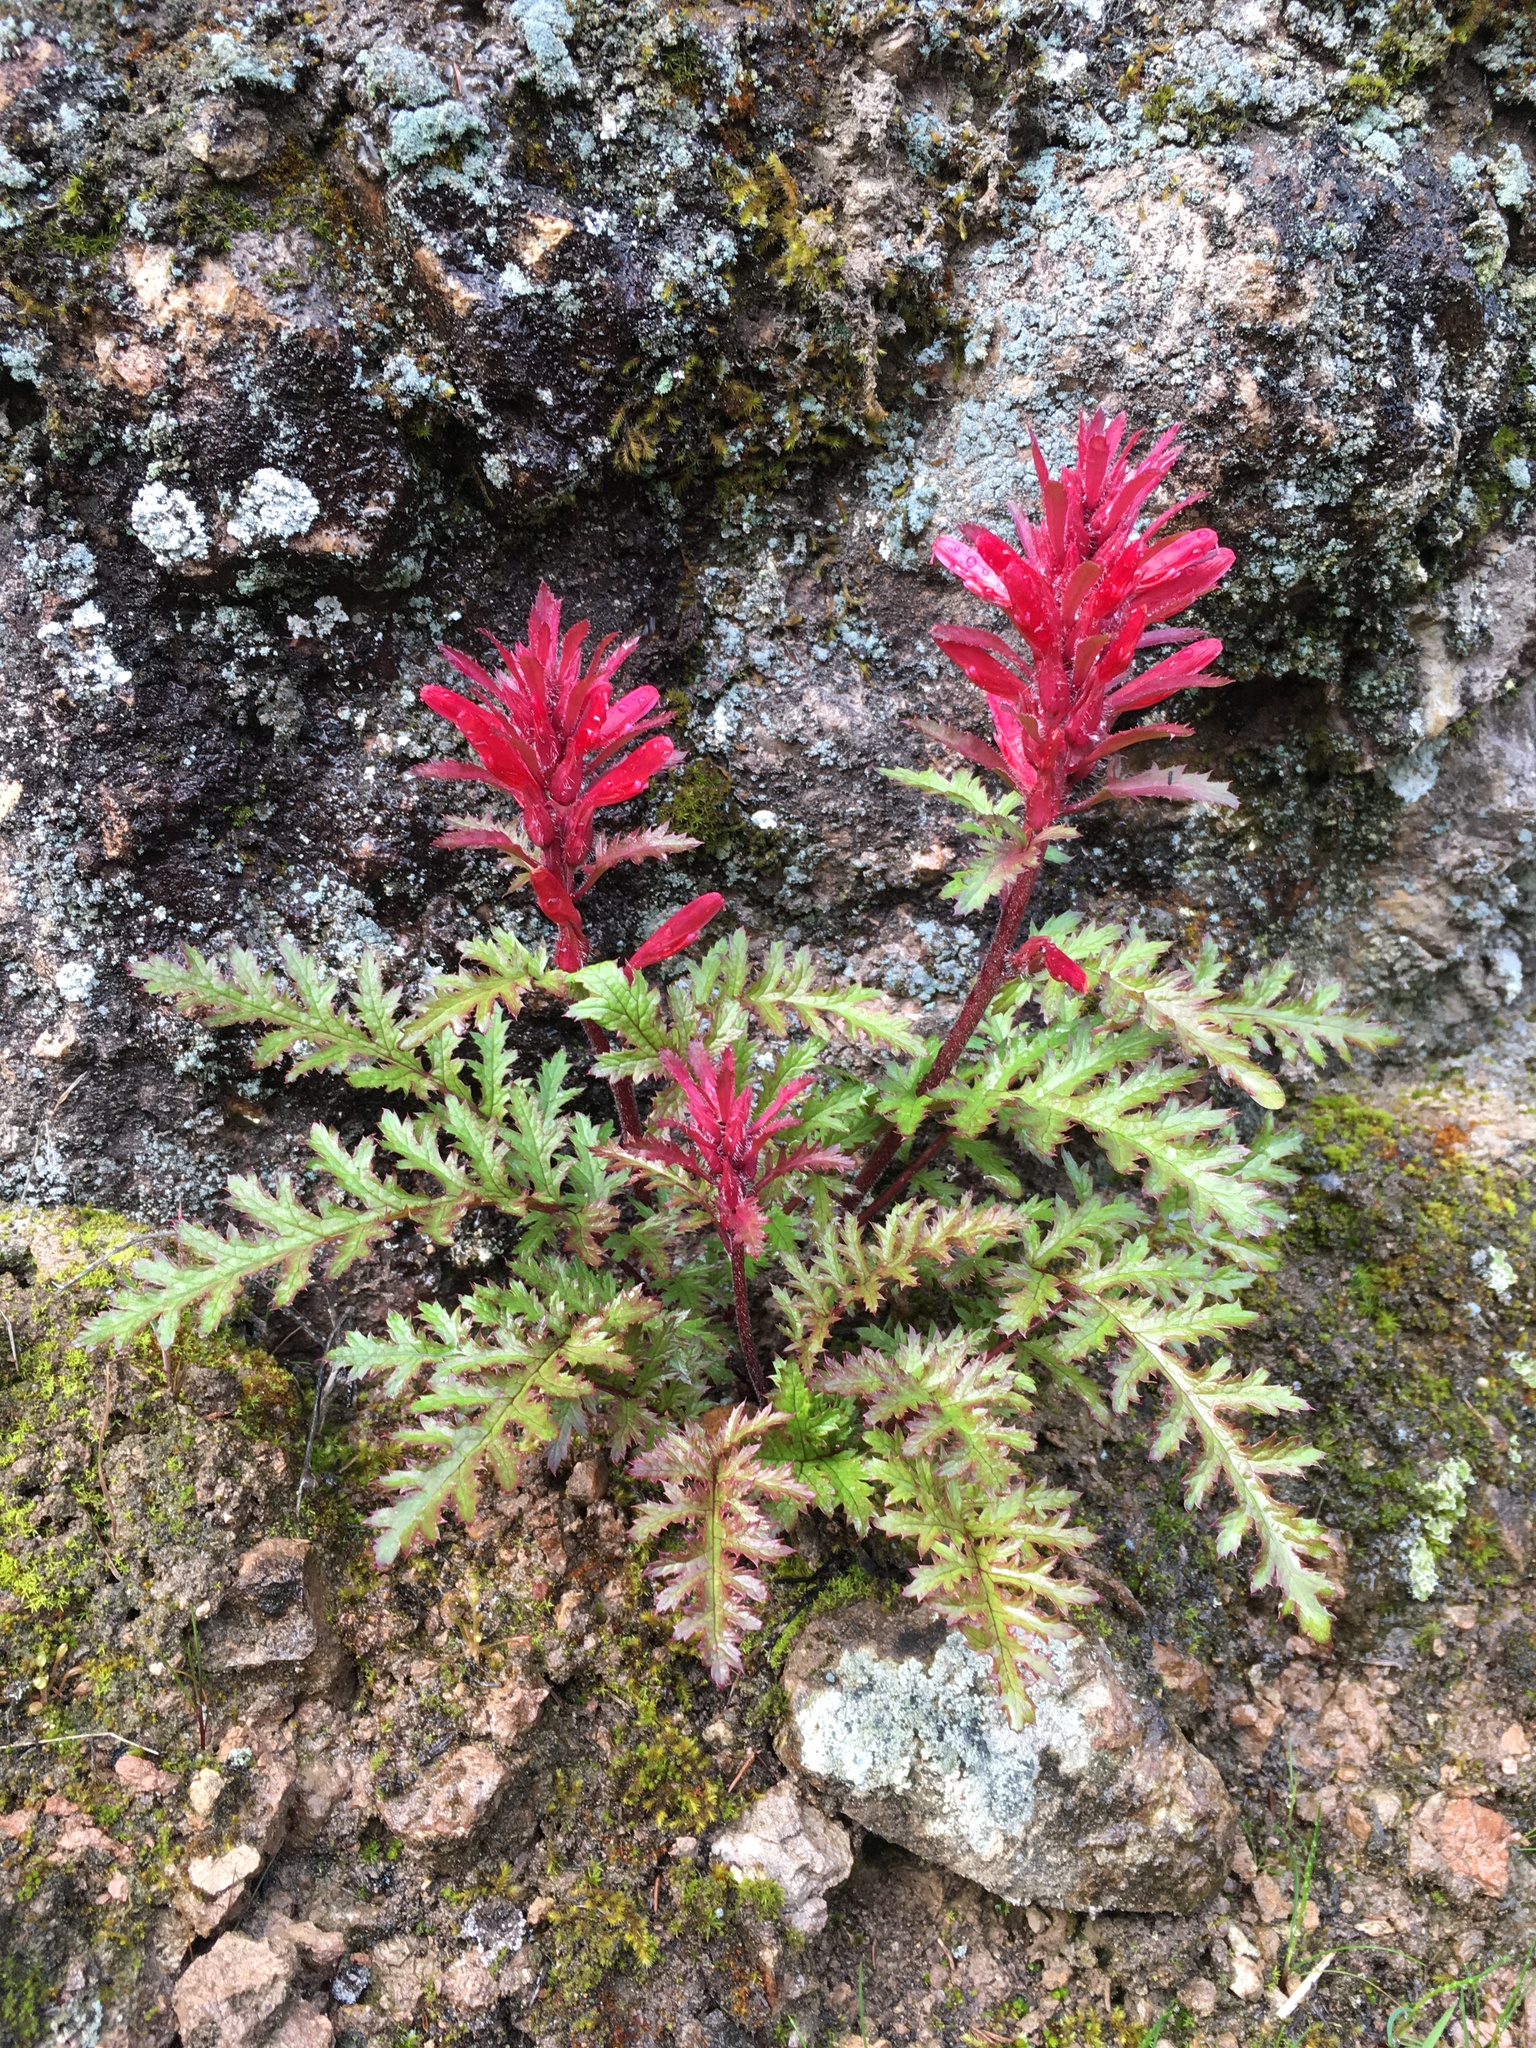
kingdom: Plantae
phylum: Tracheophyta
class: Magnoliopsida
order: Lamiales
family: Orobanchaceae
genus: Pedicularis
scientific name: Pedicularis densiflora
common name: Indian warrior
